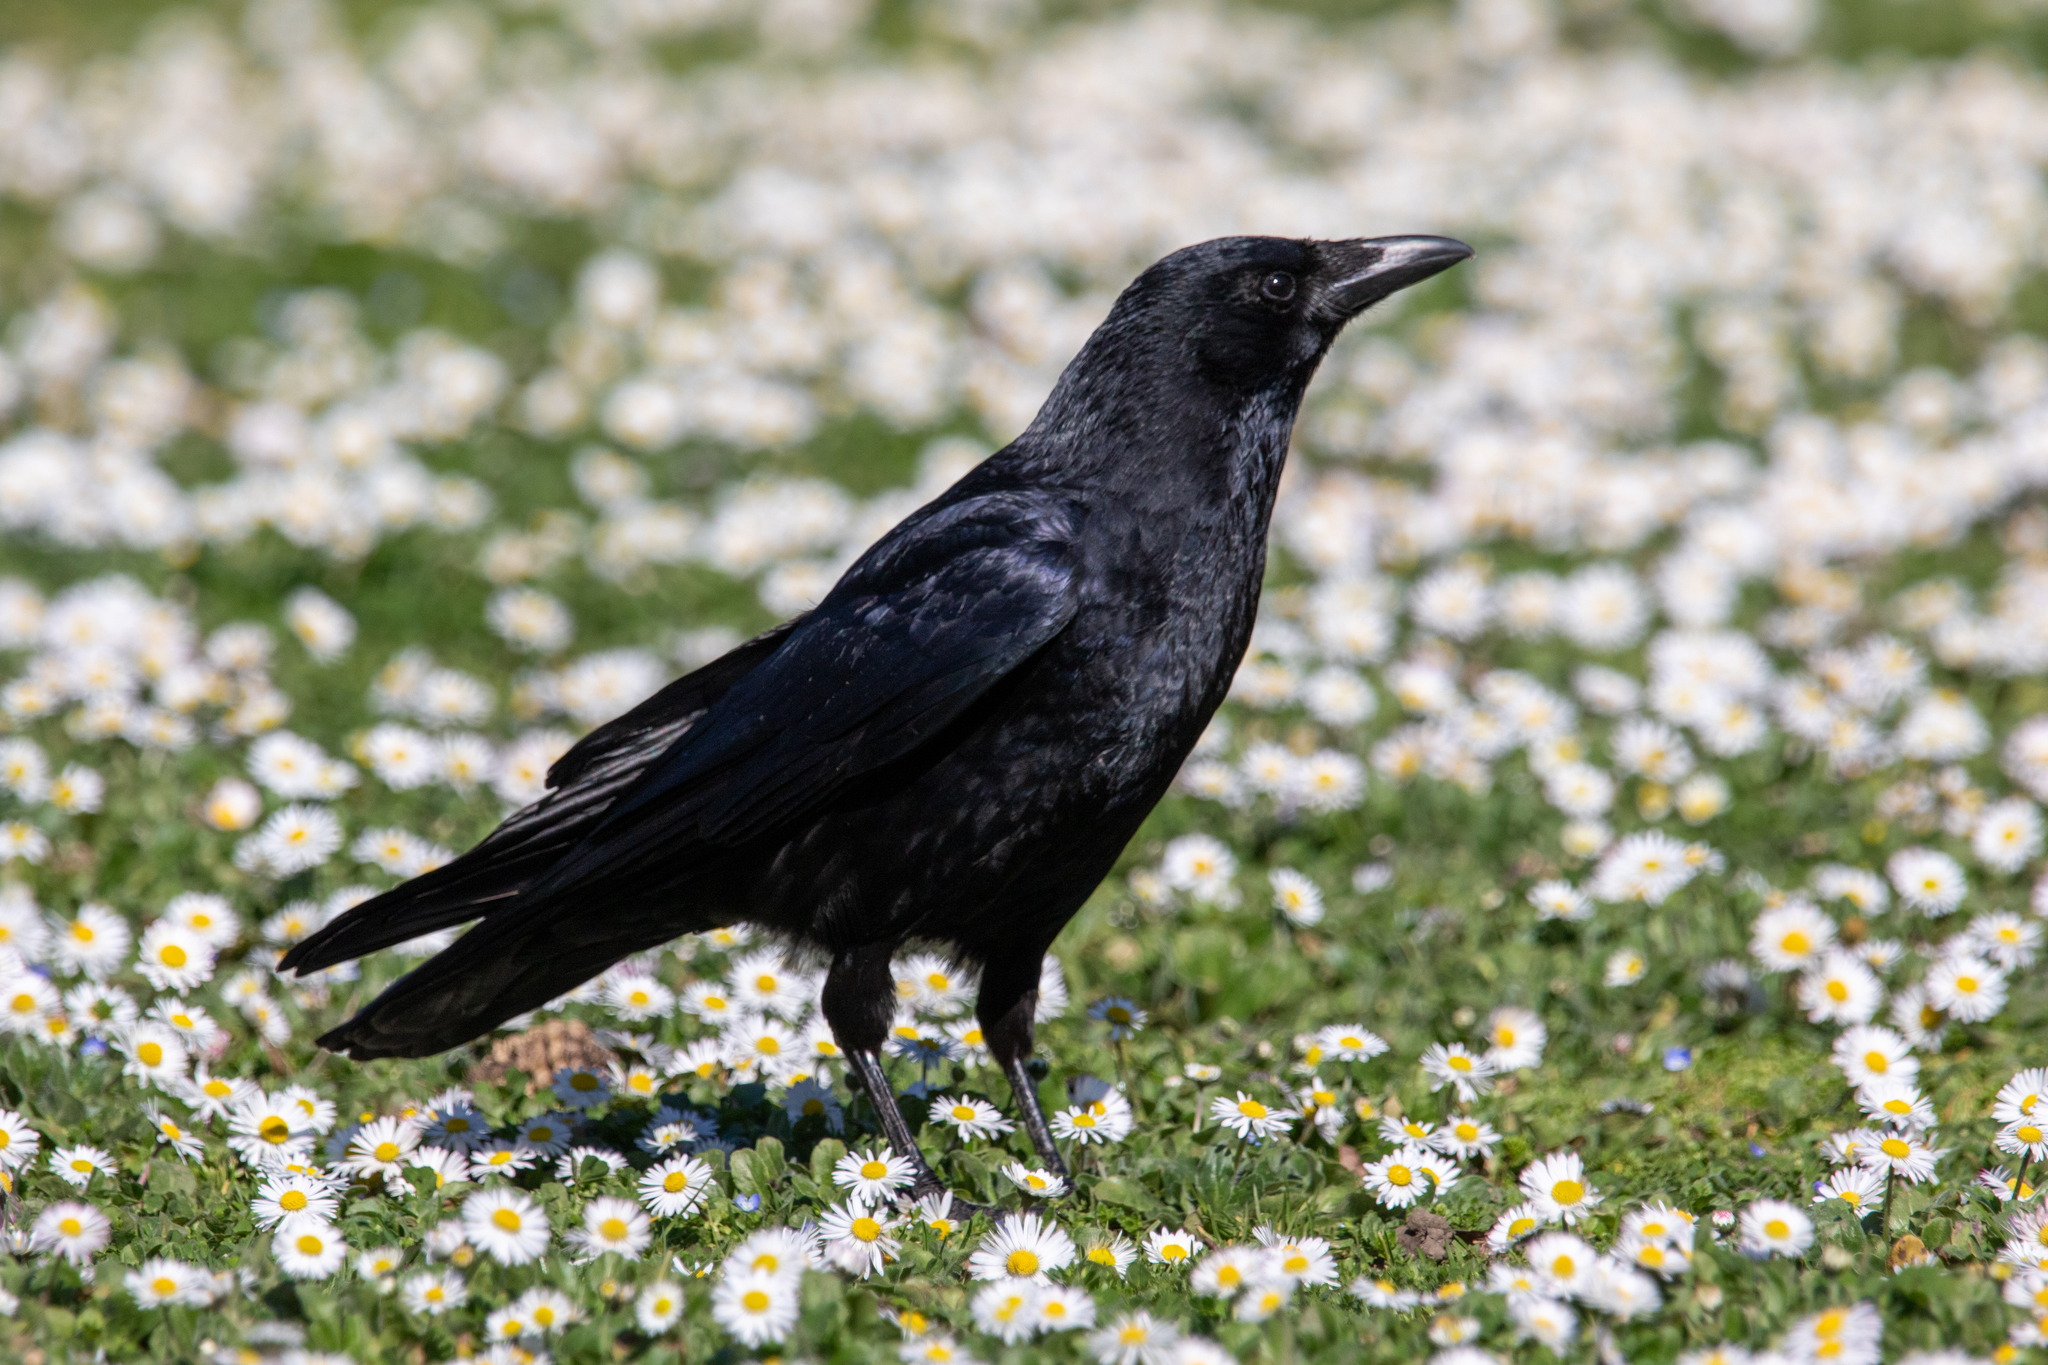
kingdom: Animalia
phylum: Chordata
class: Aves
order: Passeriformes
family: Corvidae
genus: Corvus
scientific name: Corvus corone
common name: Carrion crow
